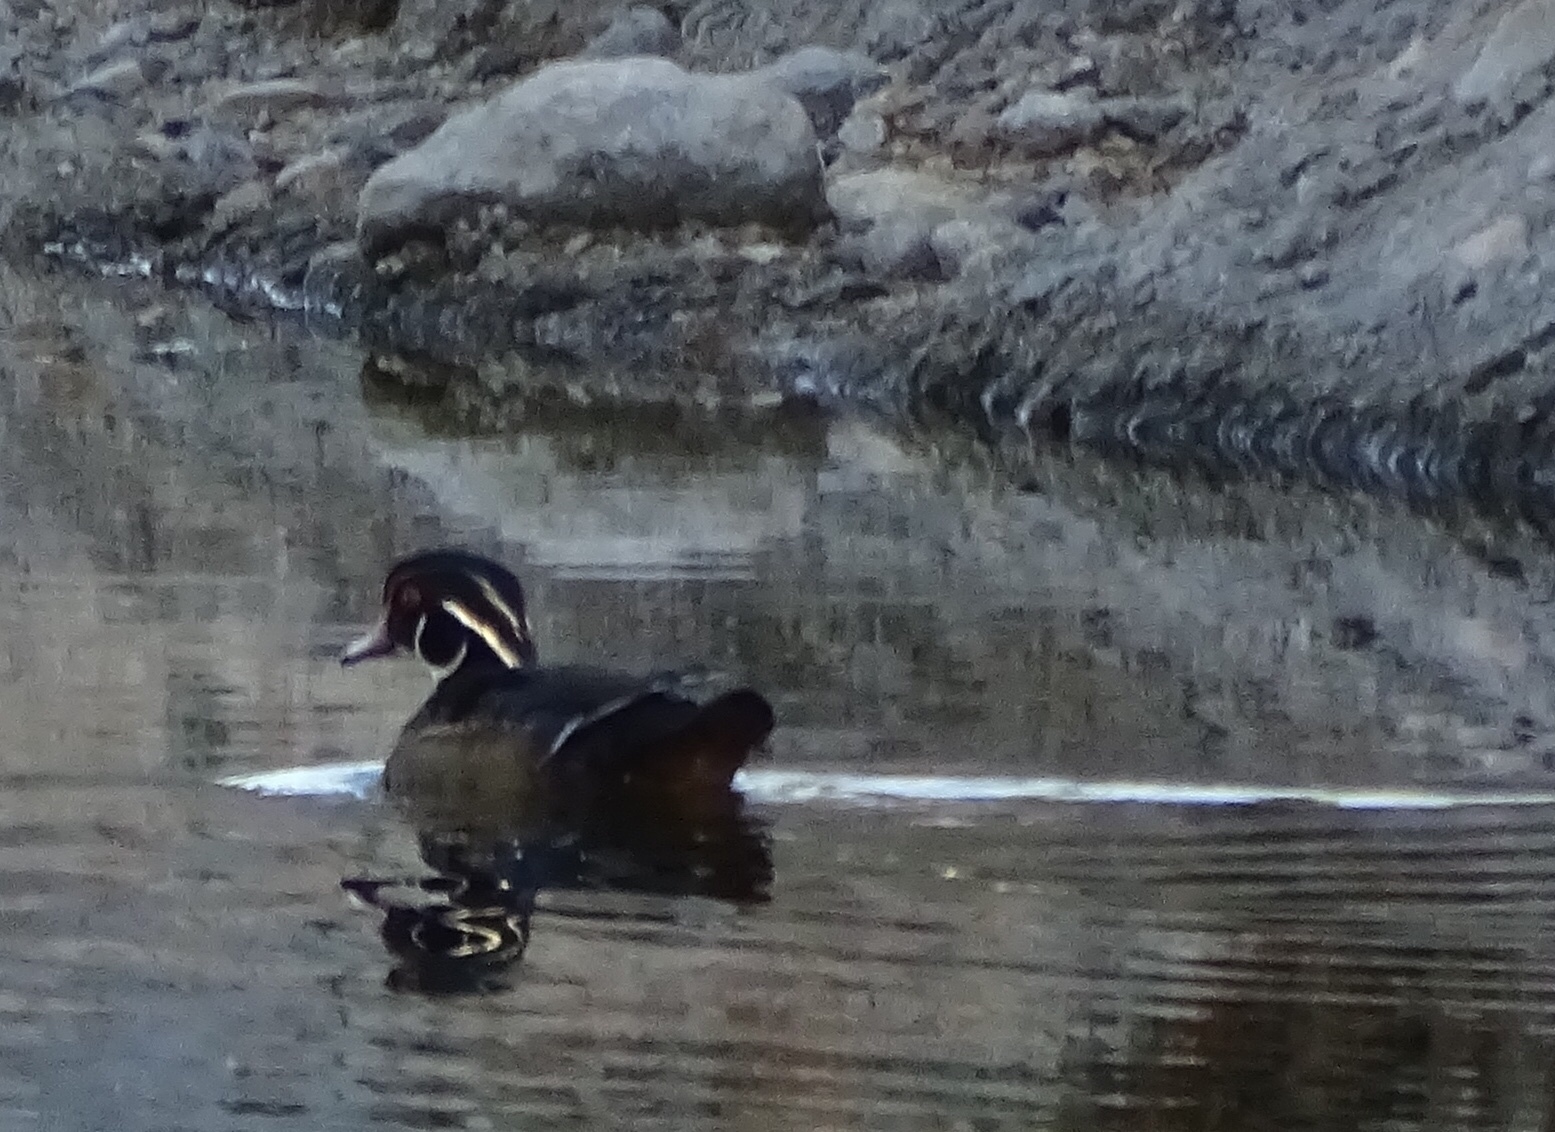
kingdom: Animalia
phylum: Chordata
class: Aves
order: Anseriformes
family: Anatidae
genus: Aix
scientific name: Aix sponsa
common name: Wood duck
